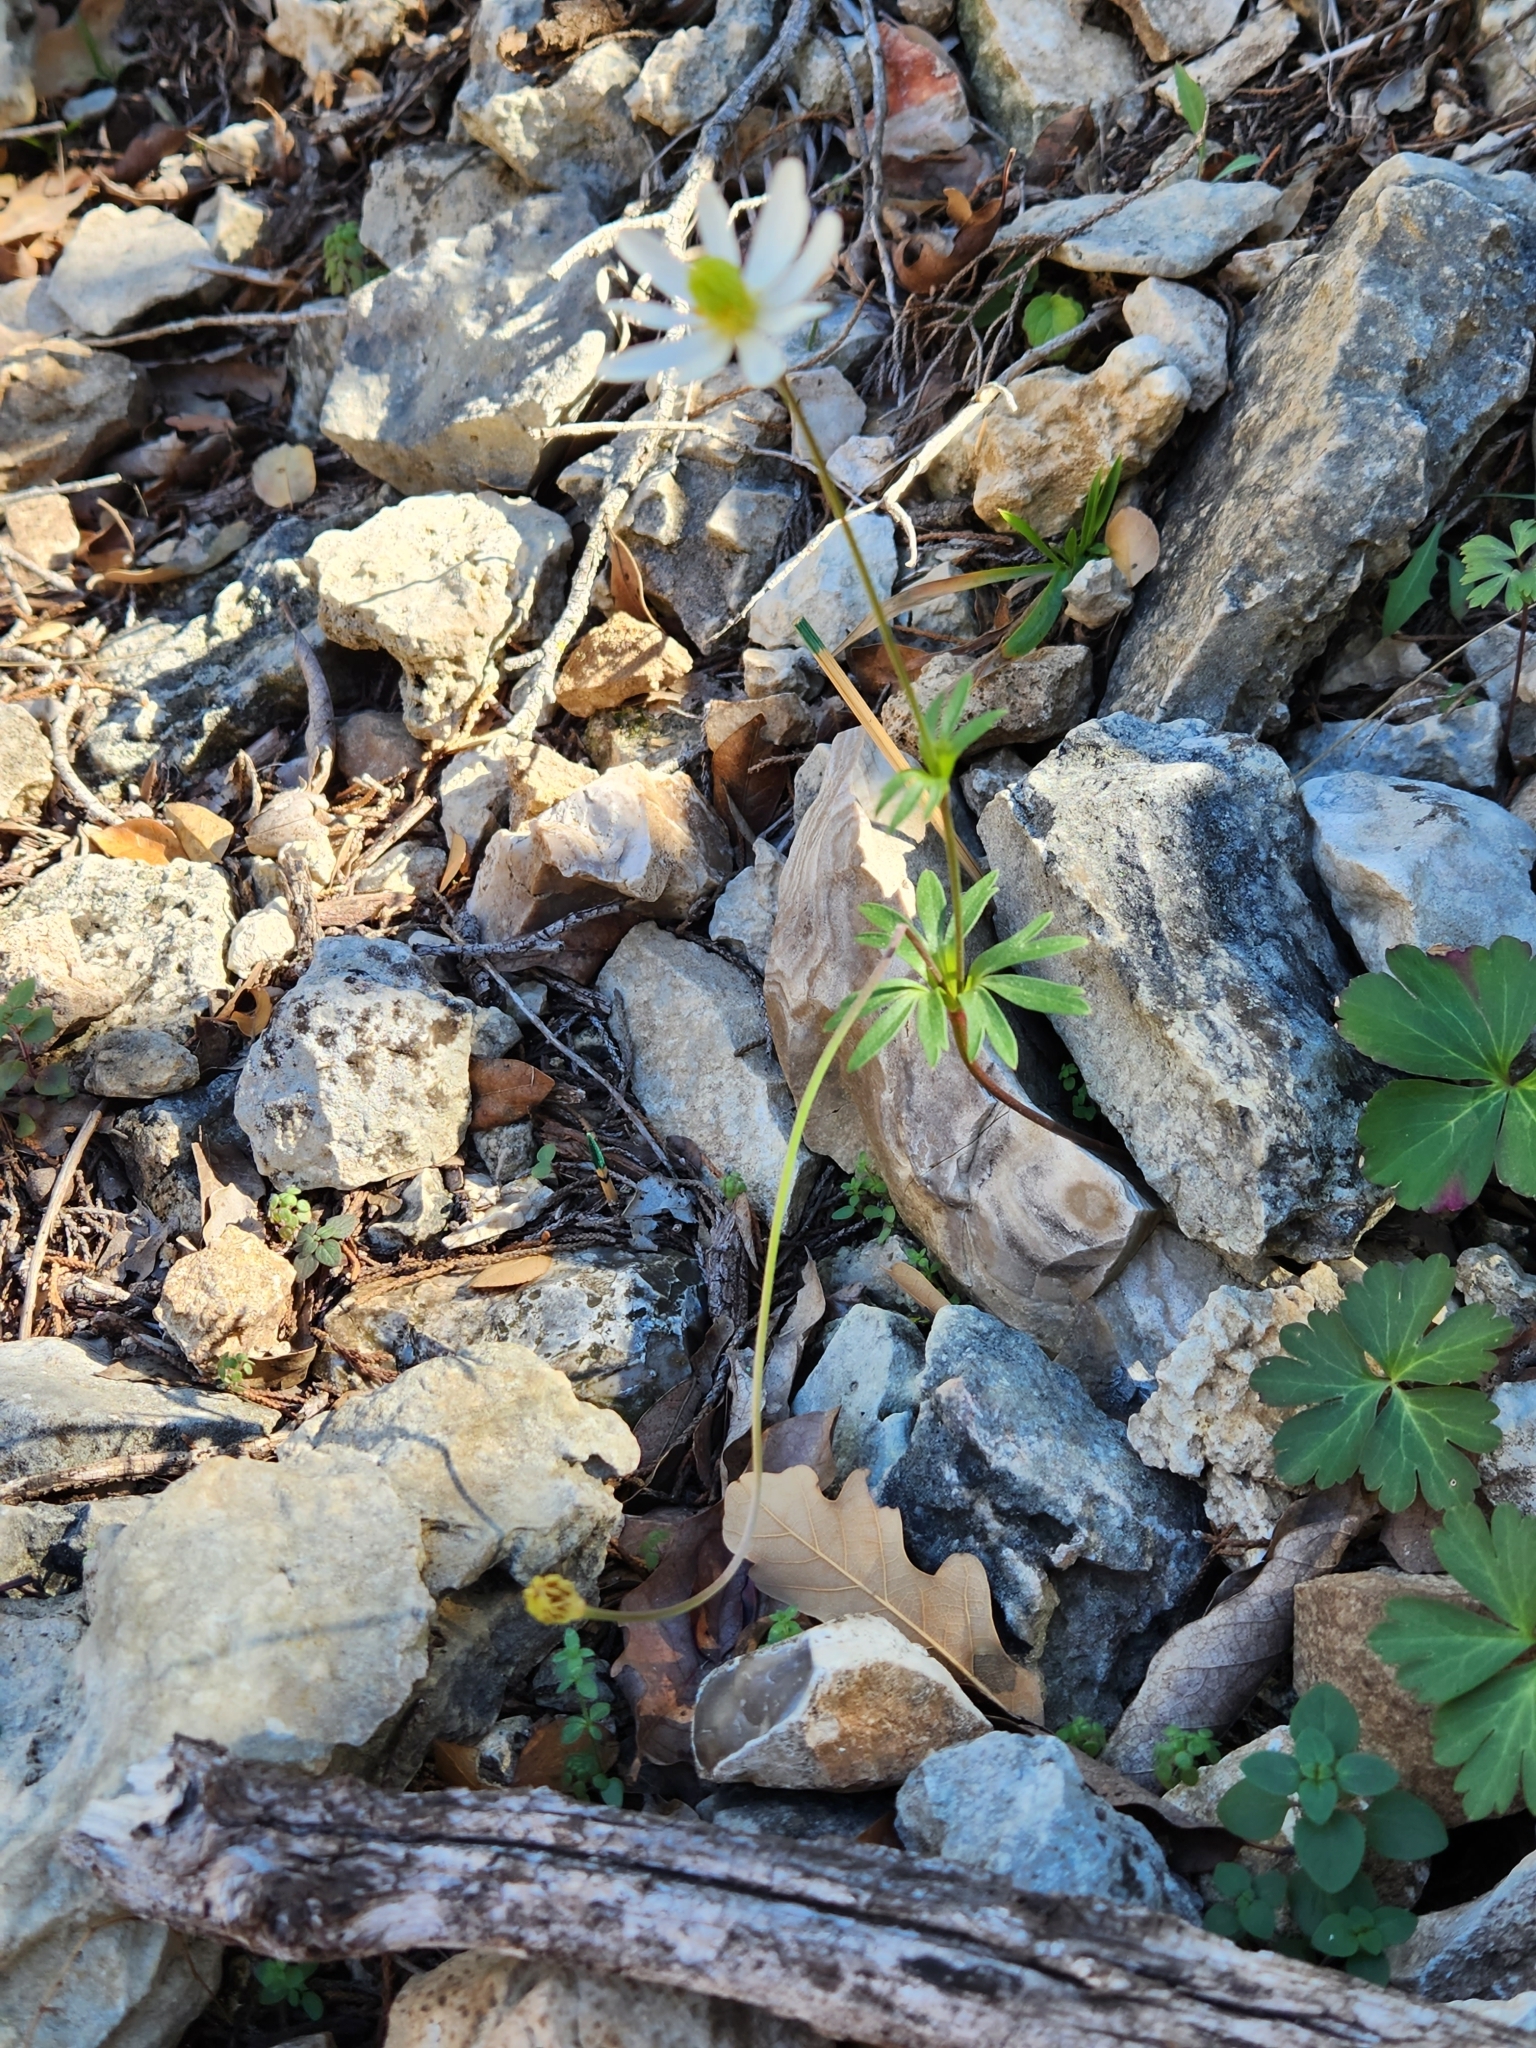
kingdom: Plantae
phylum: Tracheophyta
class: Magnoliopsida
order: Ranunculales
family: Ranunculaceae
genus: Anemone
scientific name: Anemone edwardsiana
